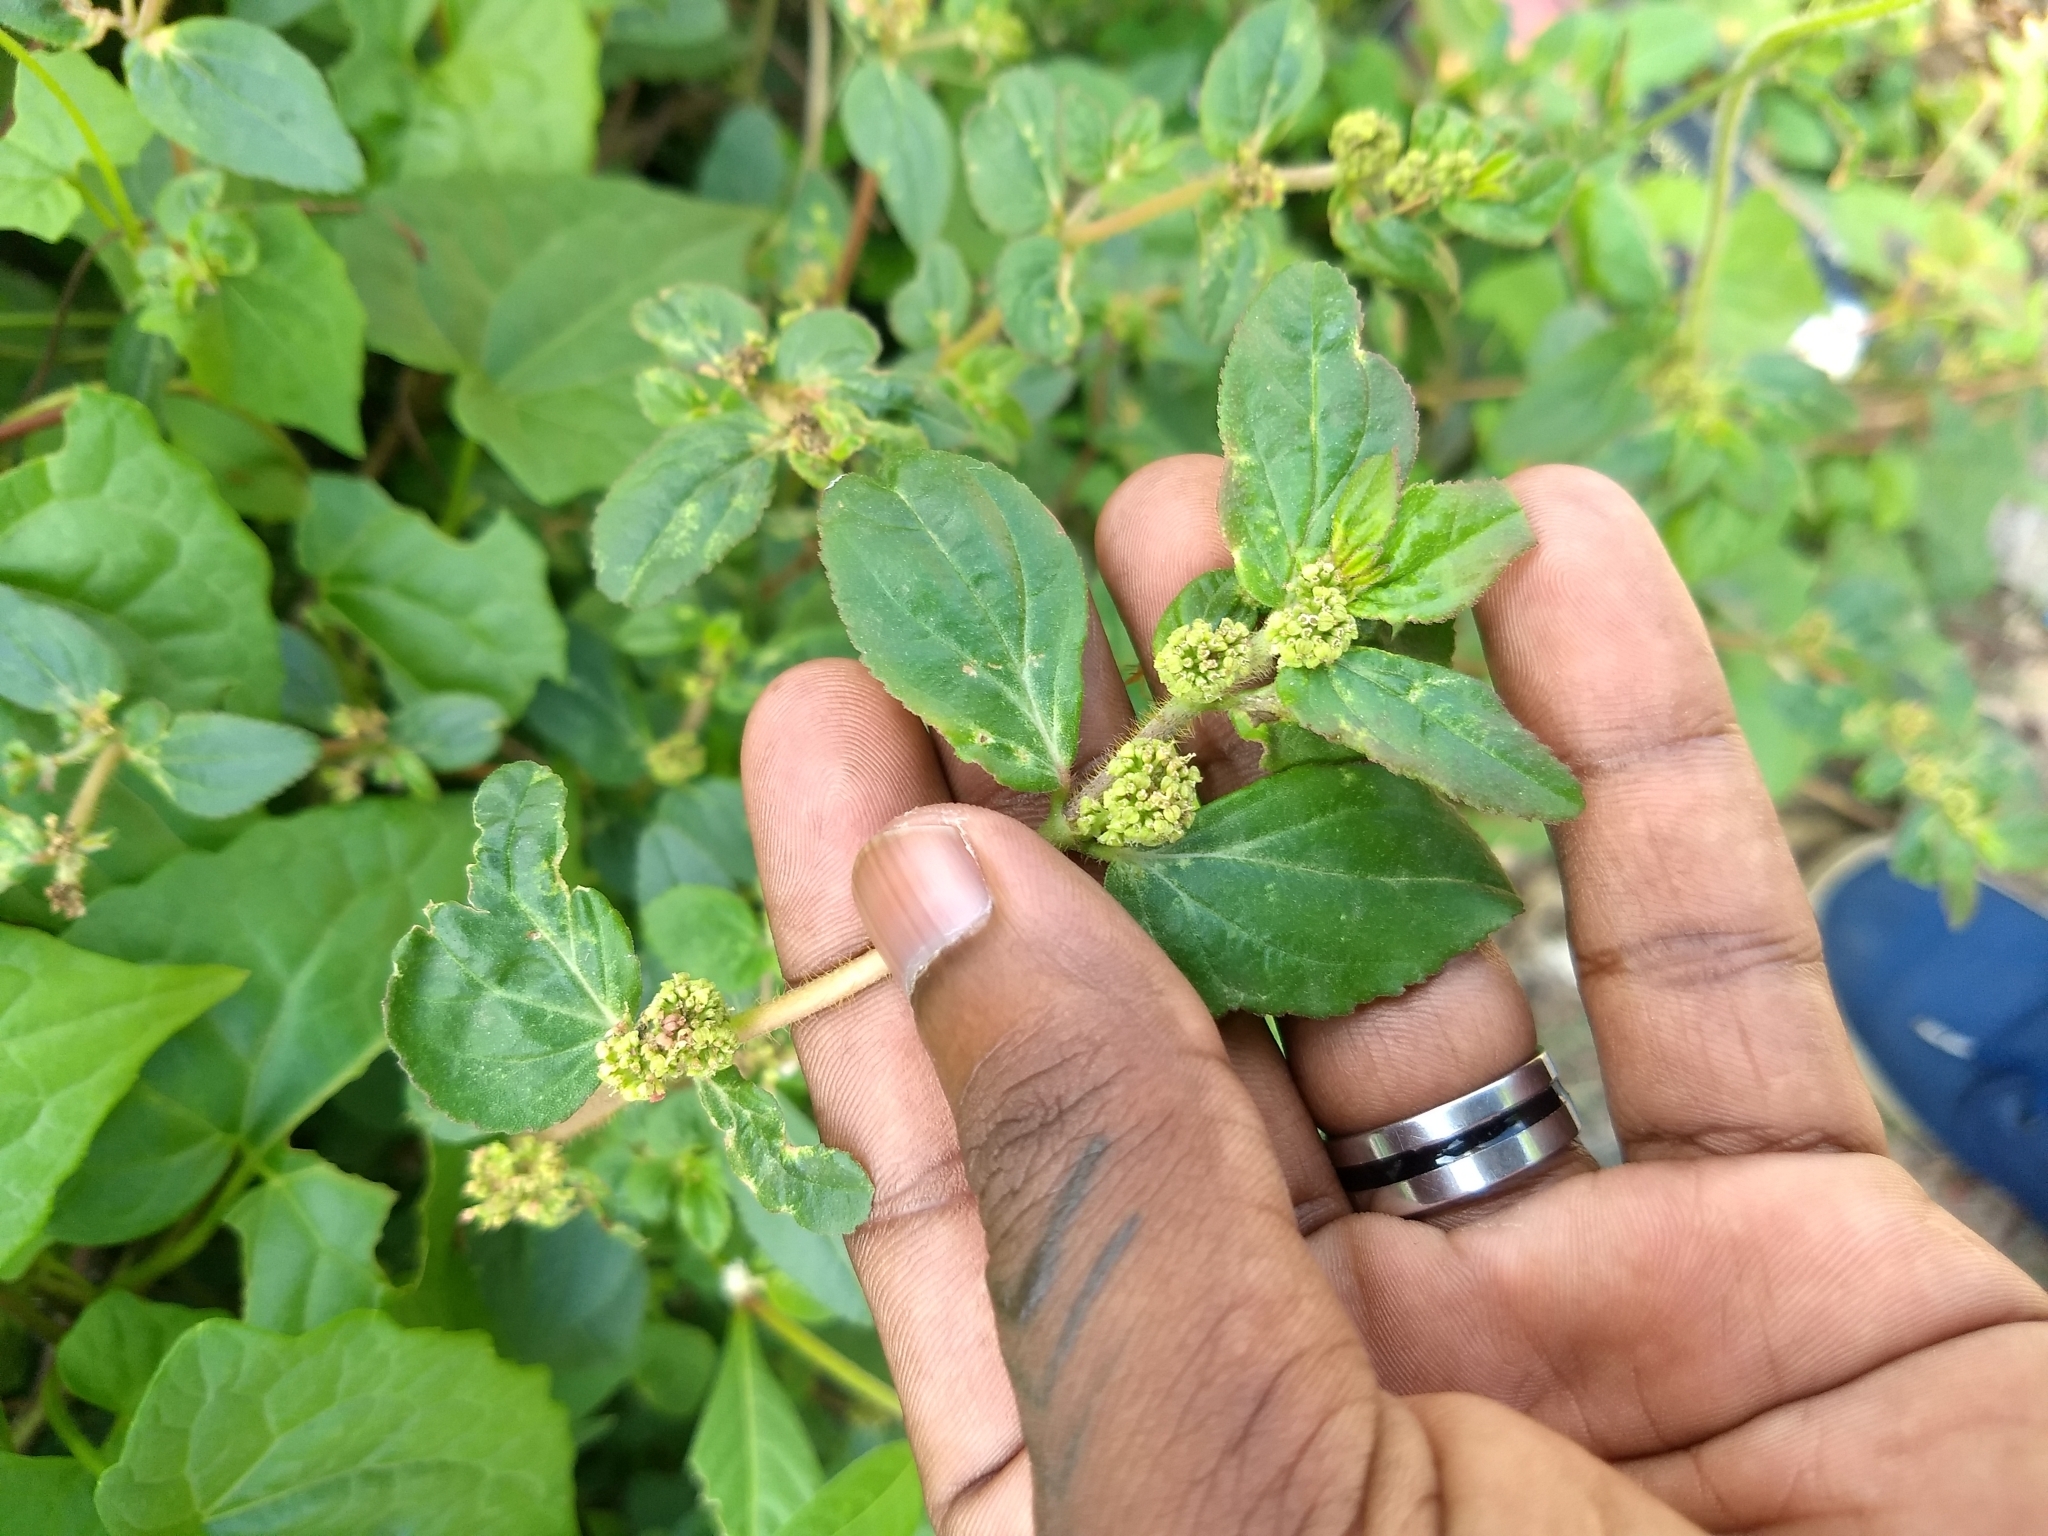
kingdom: Plantae
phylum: Tracheophyta
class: Magnoliopsida
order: Malpighiales
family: Euphorbiaceae
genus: Euphorbia
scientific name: Euphorbia hirta
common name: Pillpod sandmat
